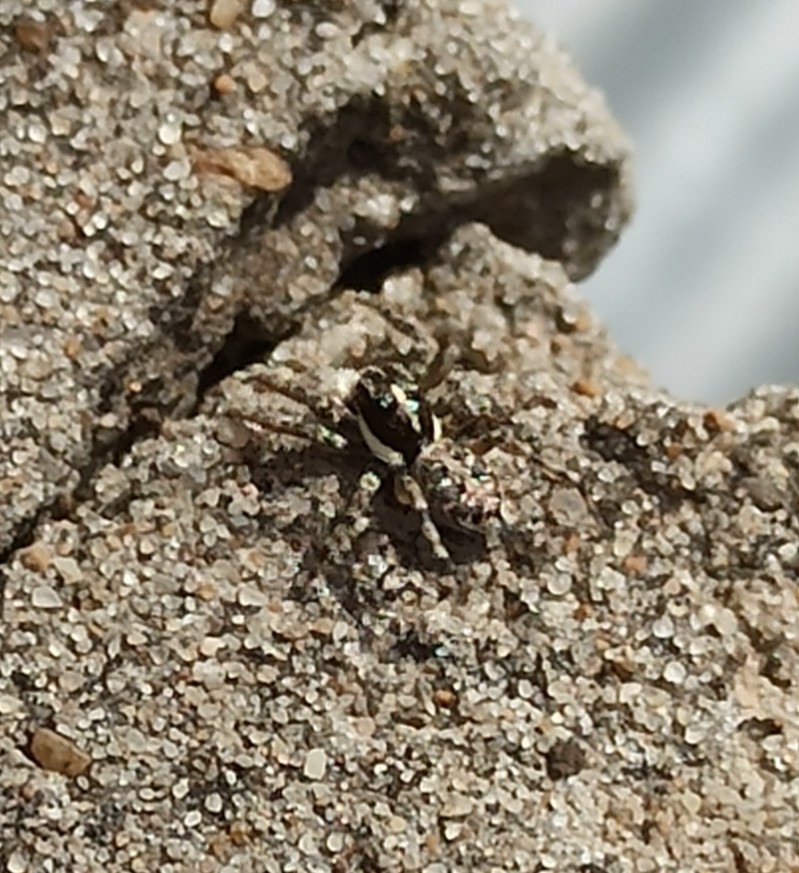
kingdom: Animalia
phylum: Arthropoda
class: Arachnida
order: Araneae
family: Salticidae
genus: Menemerus
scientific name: Menemerus semilimbatus
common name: Jumping spider
